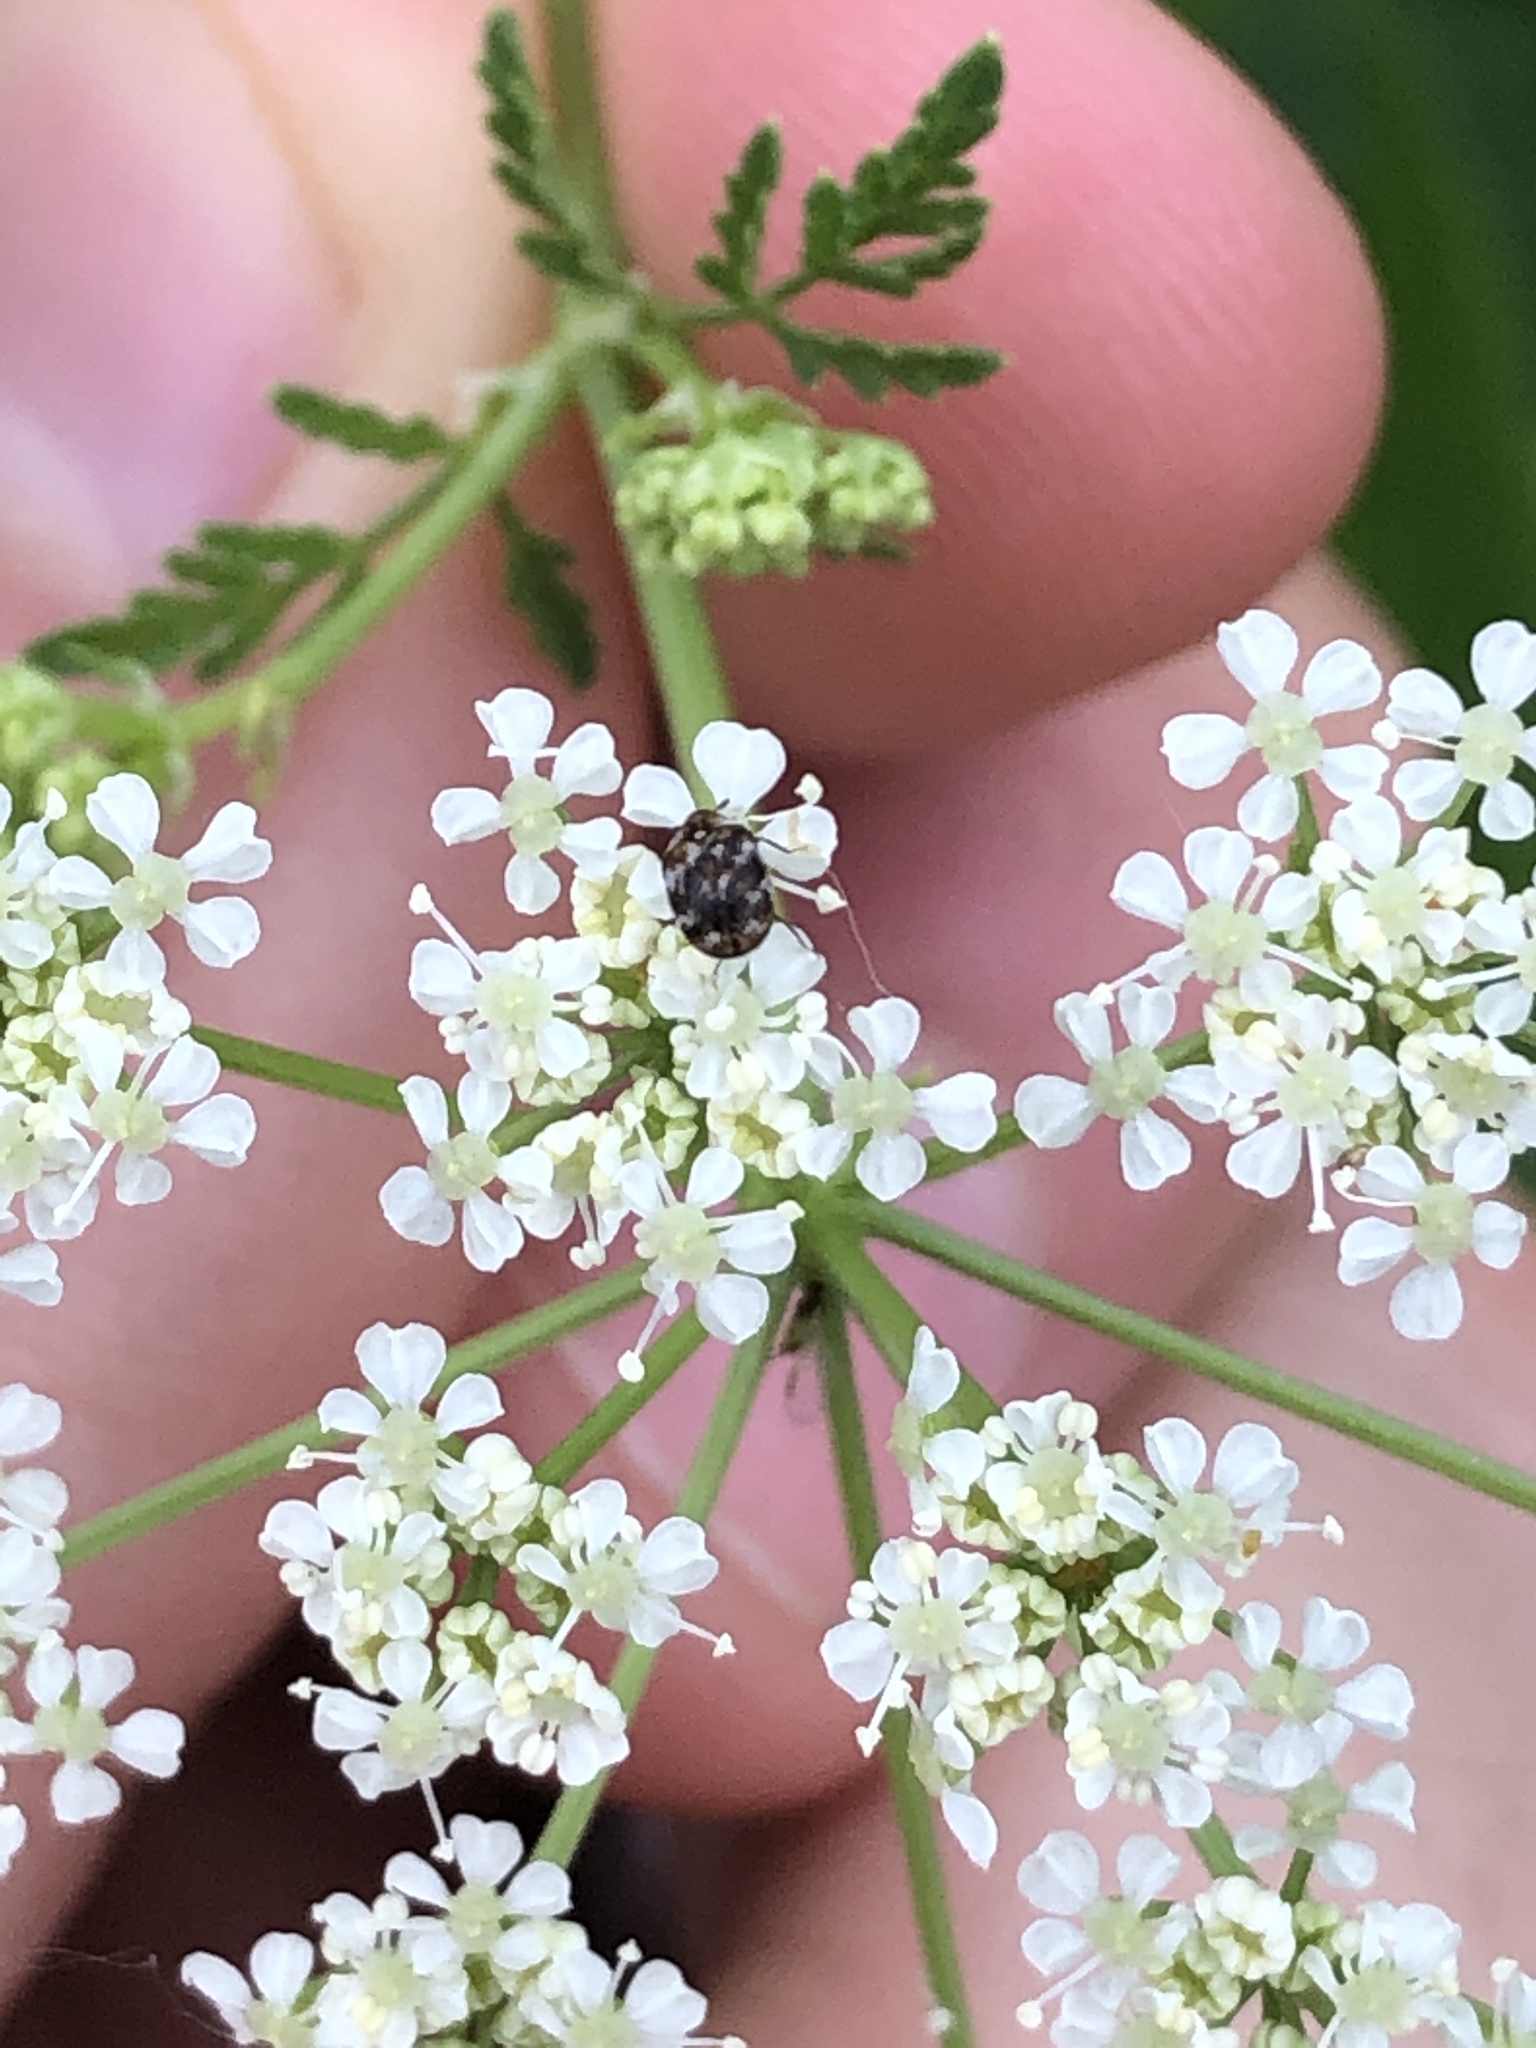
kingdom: Animalia
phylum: Arthropoda
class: Insecta
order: Coleoptera
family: Dermestidae
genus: Anthrenus
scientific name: Anthrenus verbasci
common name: Varied carpet beetle
